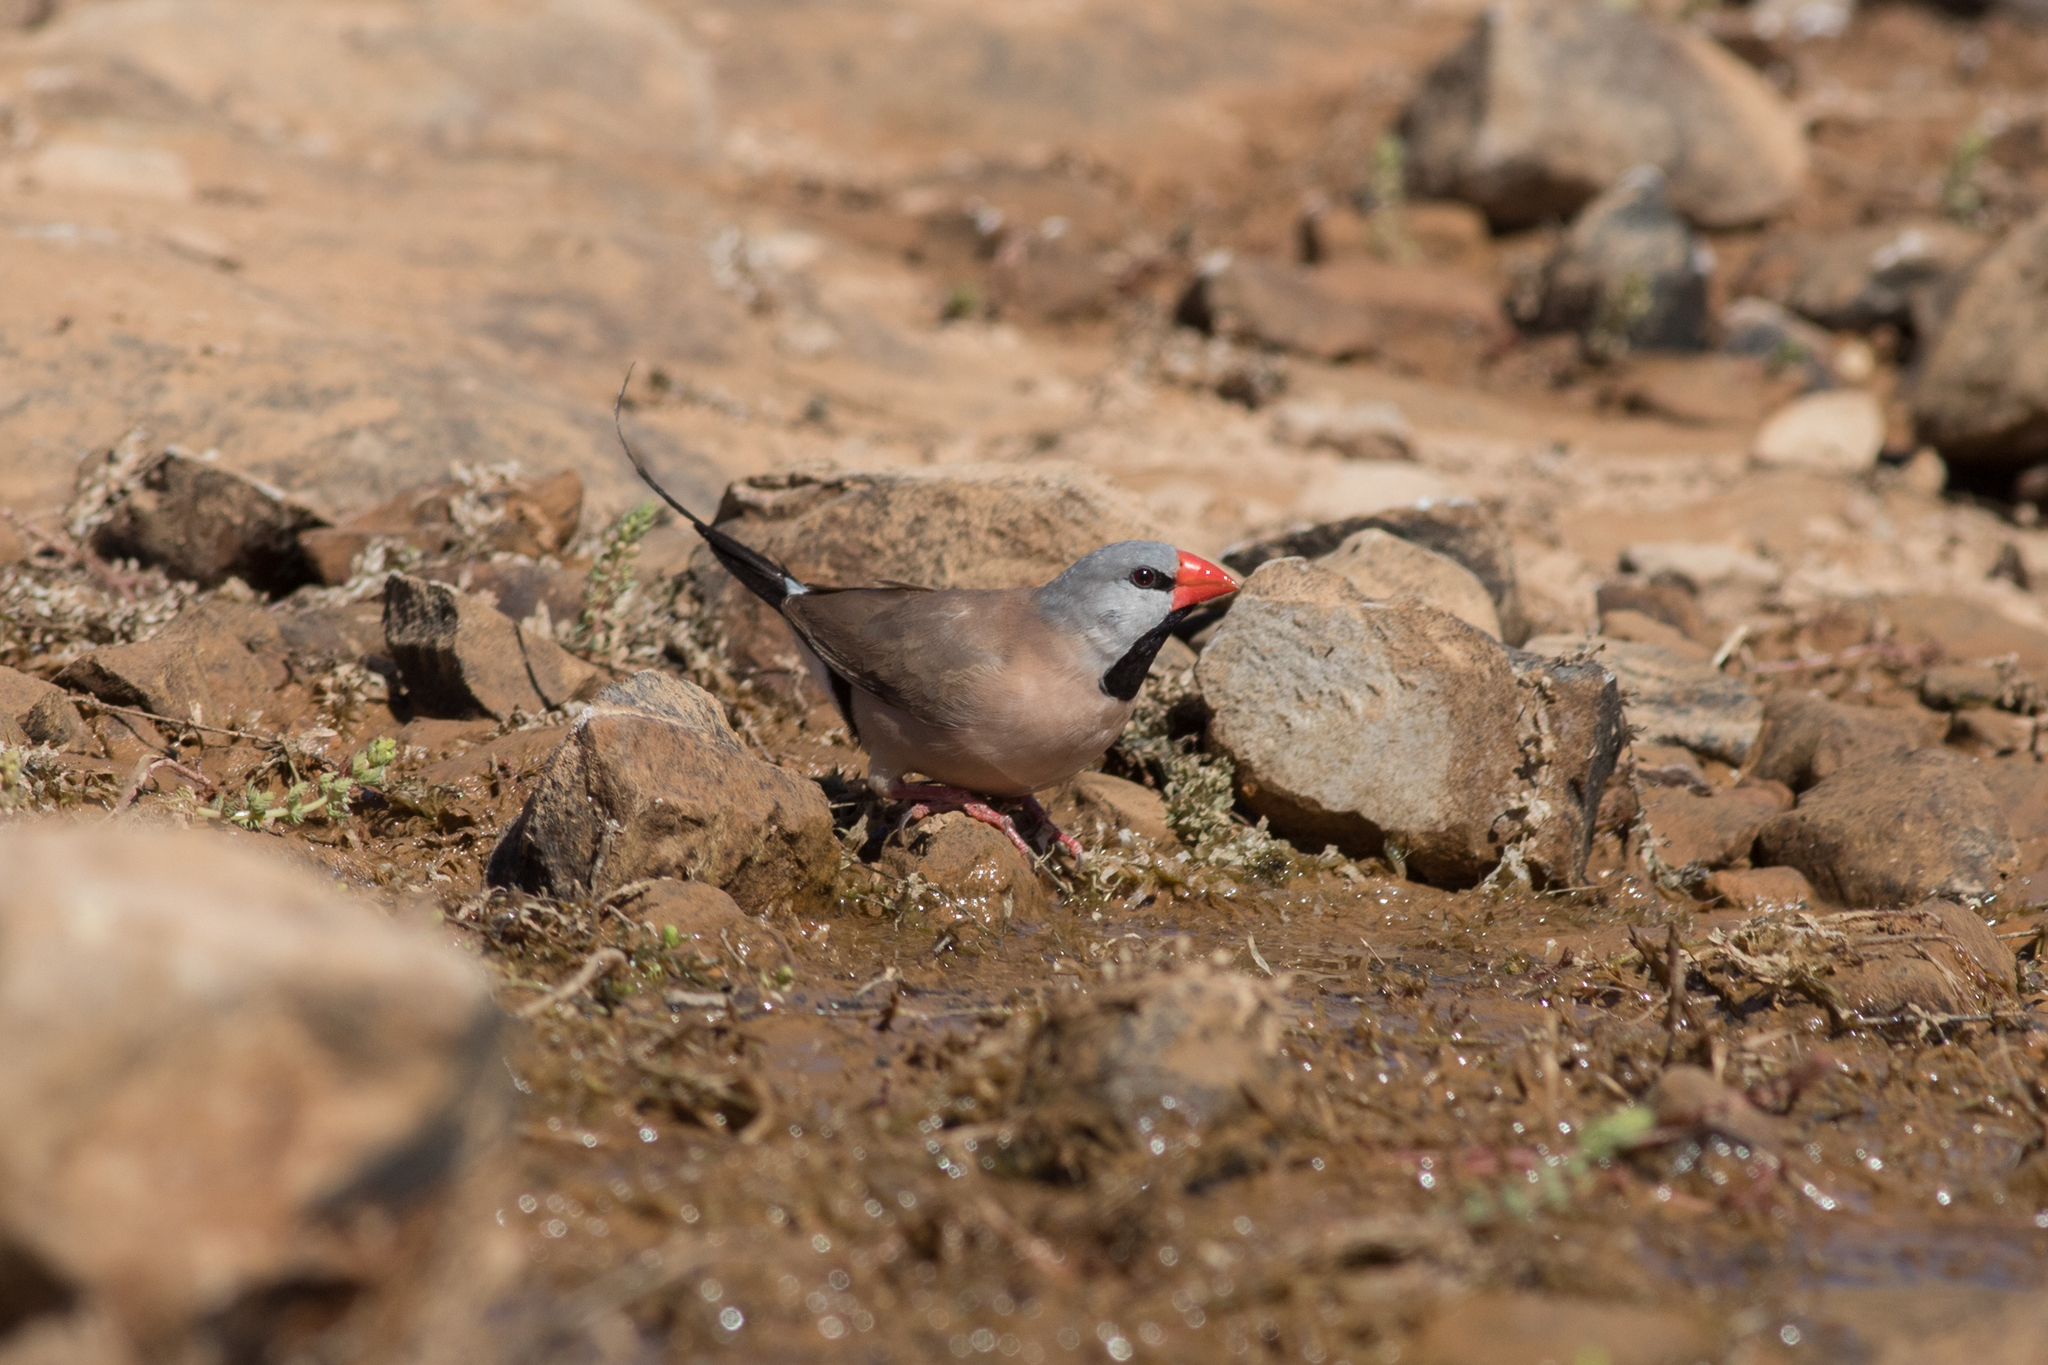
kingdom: Animalia
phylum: Chordata
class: Aves
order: Passeriformes
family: Estrildidae
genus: Poephila
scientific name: Poephila acuticauda
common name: Long-tailed finch
